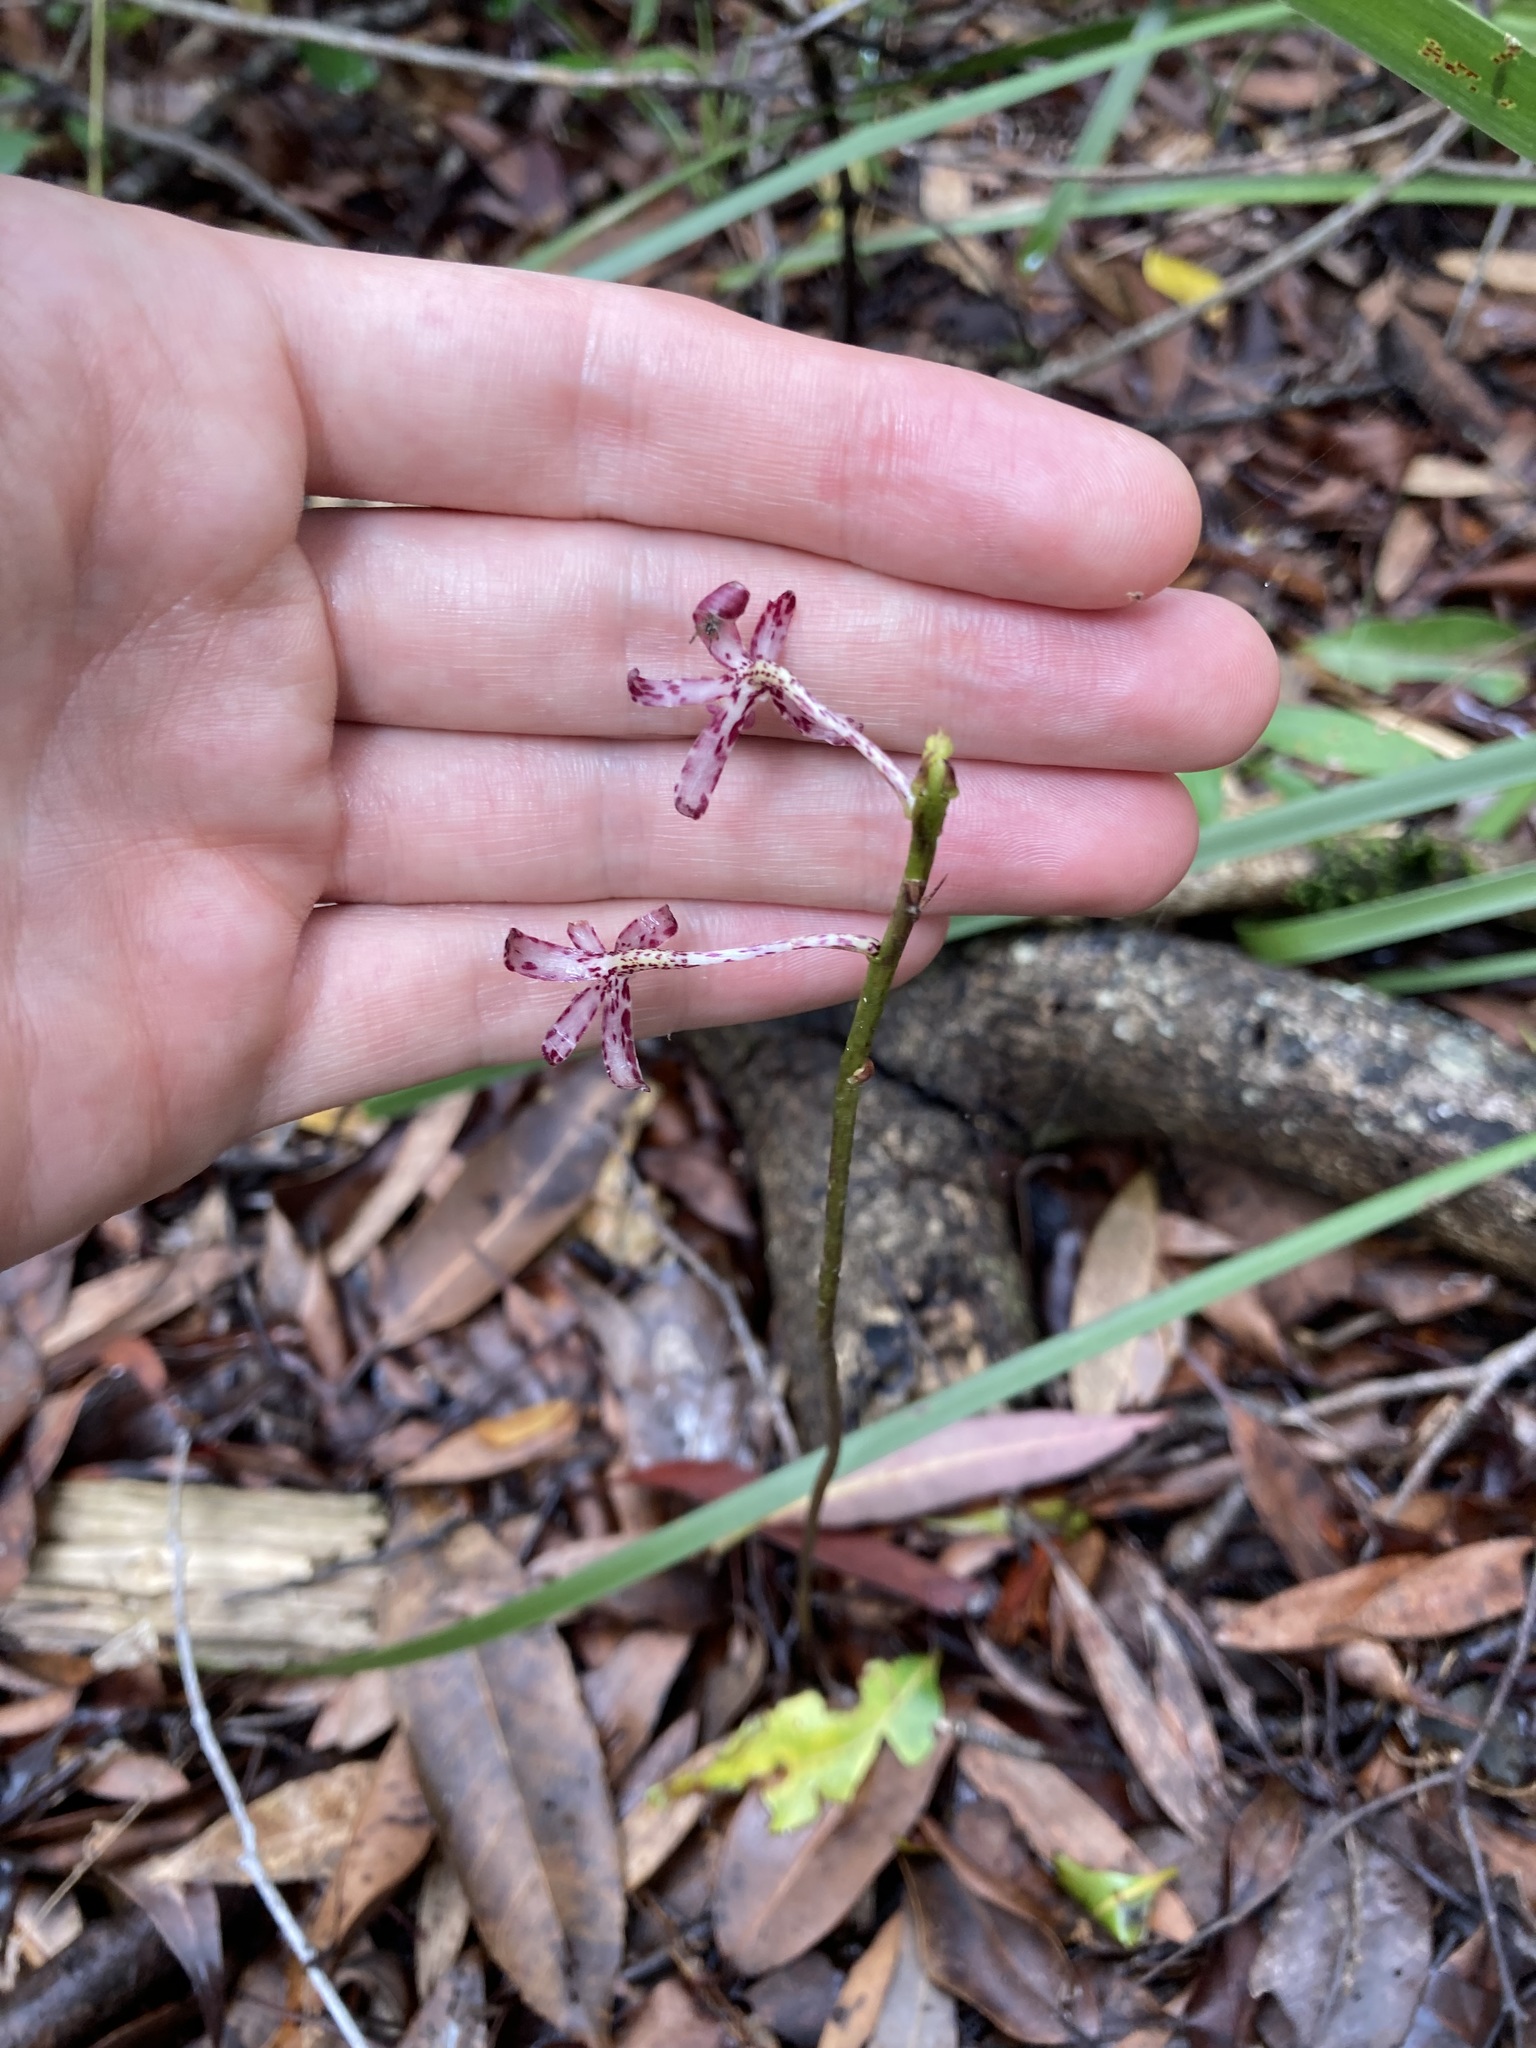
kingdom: Plantae
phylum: Tracheophyta
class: Liliopsida
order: Asparagales
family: Orchidaceae
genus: Dipodium
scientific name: Dipodium variegatum
